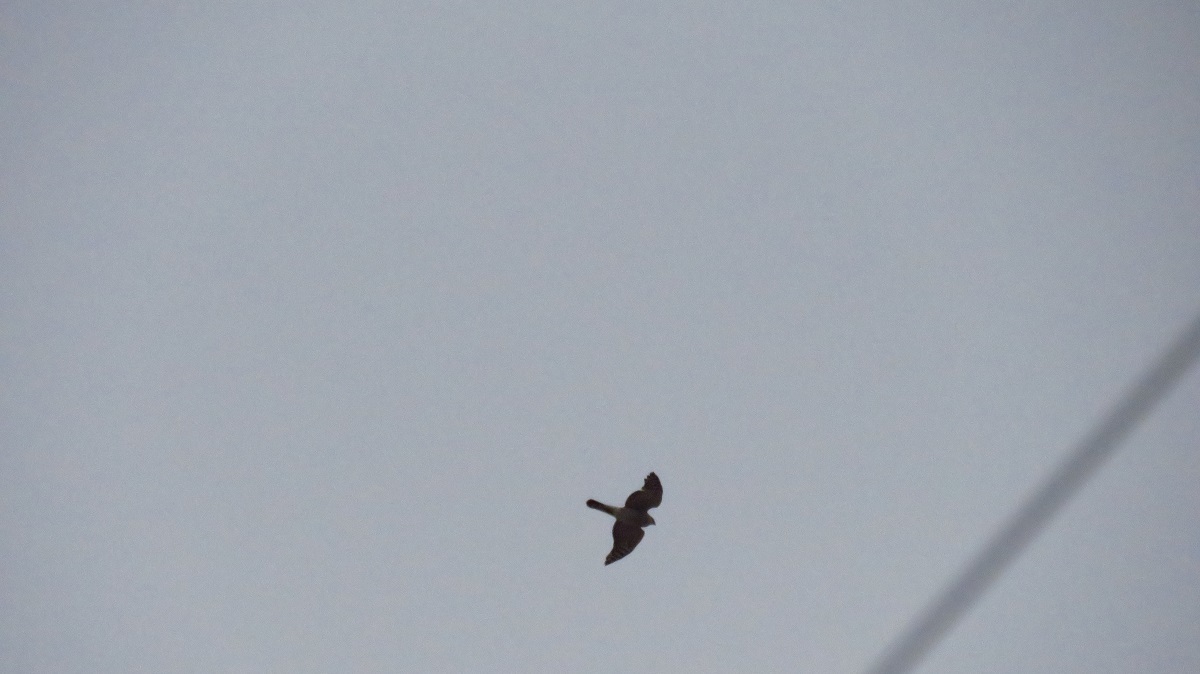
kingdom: Animalia
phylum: Chordata
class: Aves
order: Accipitriformes
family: Accipitridae
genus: Accipiter
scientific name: Accipiter nisus
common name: Eurasian sparrowhawk
